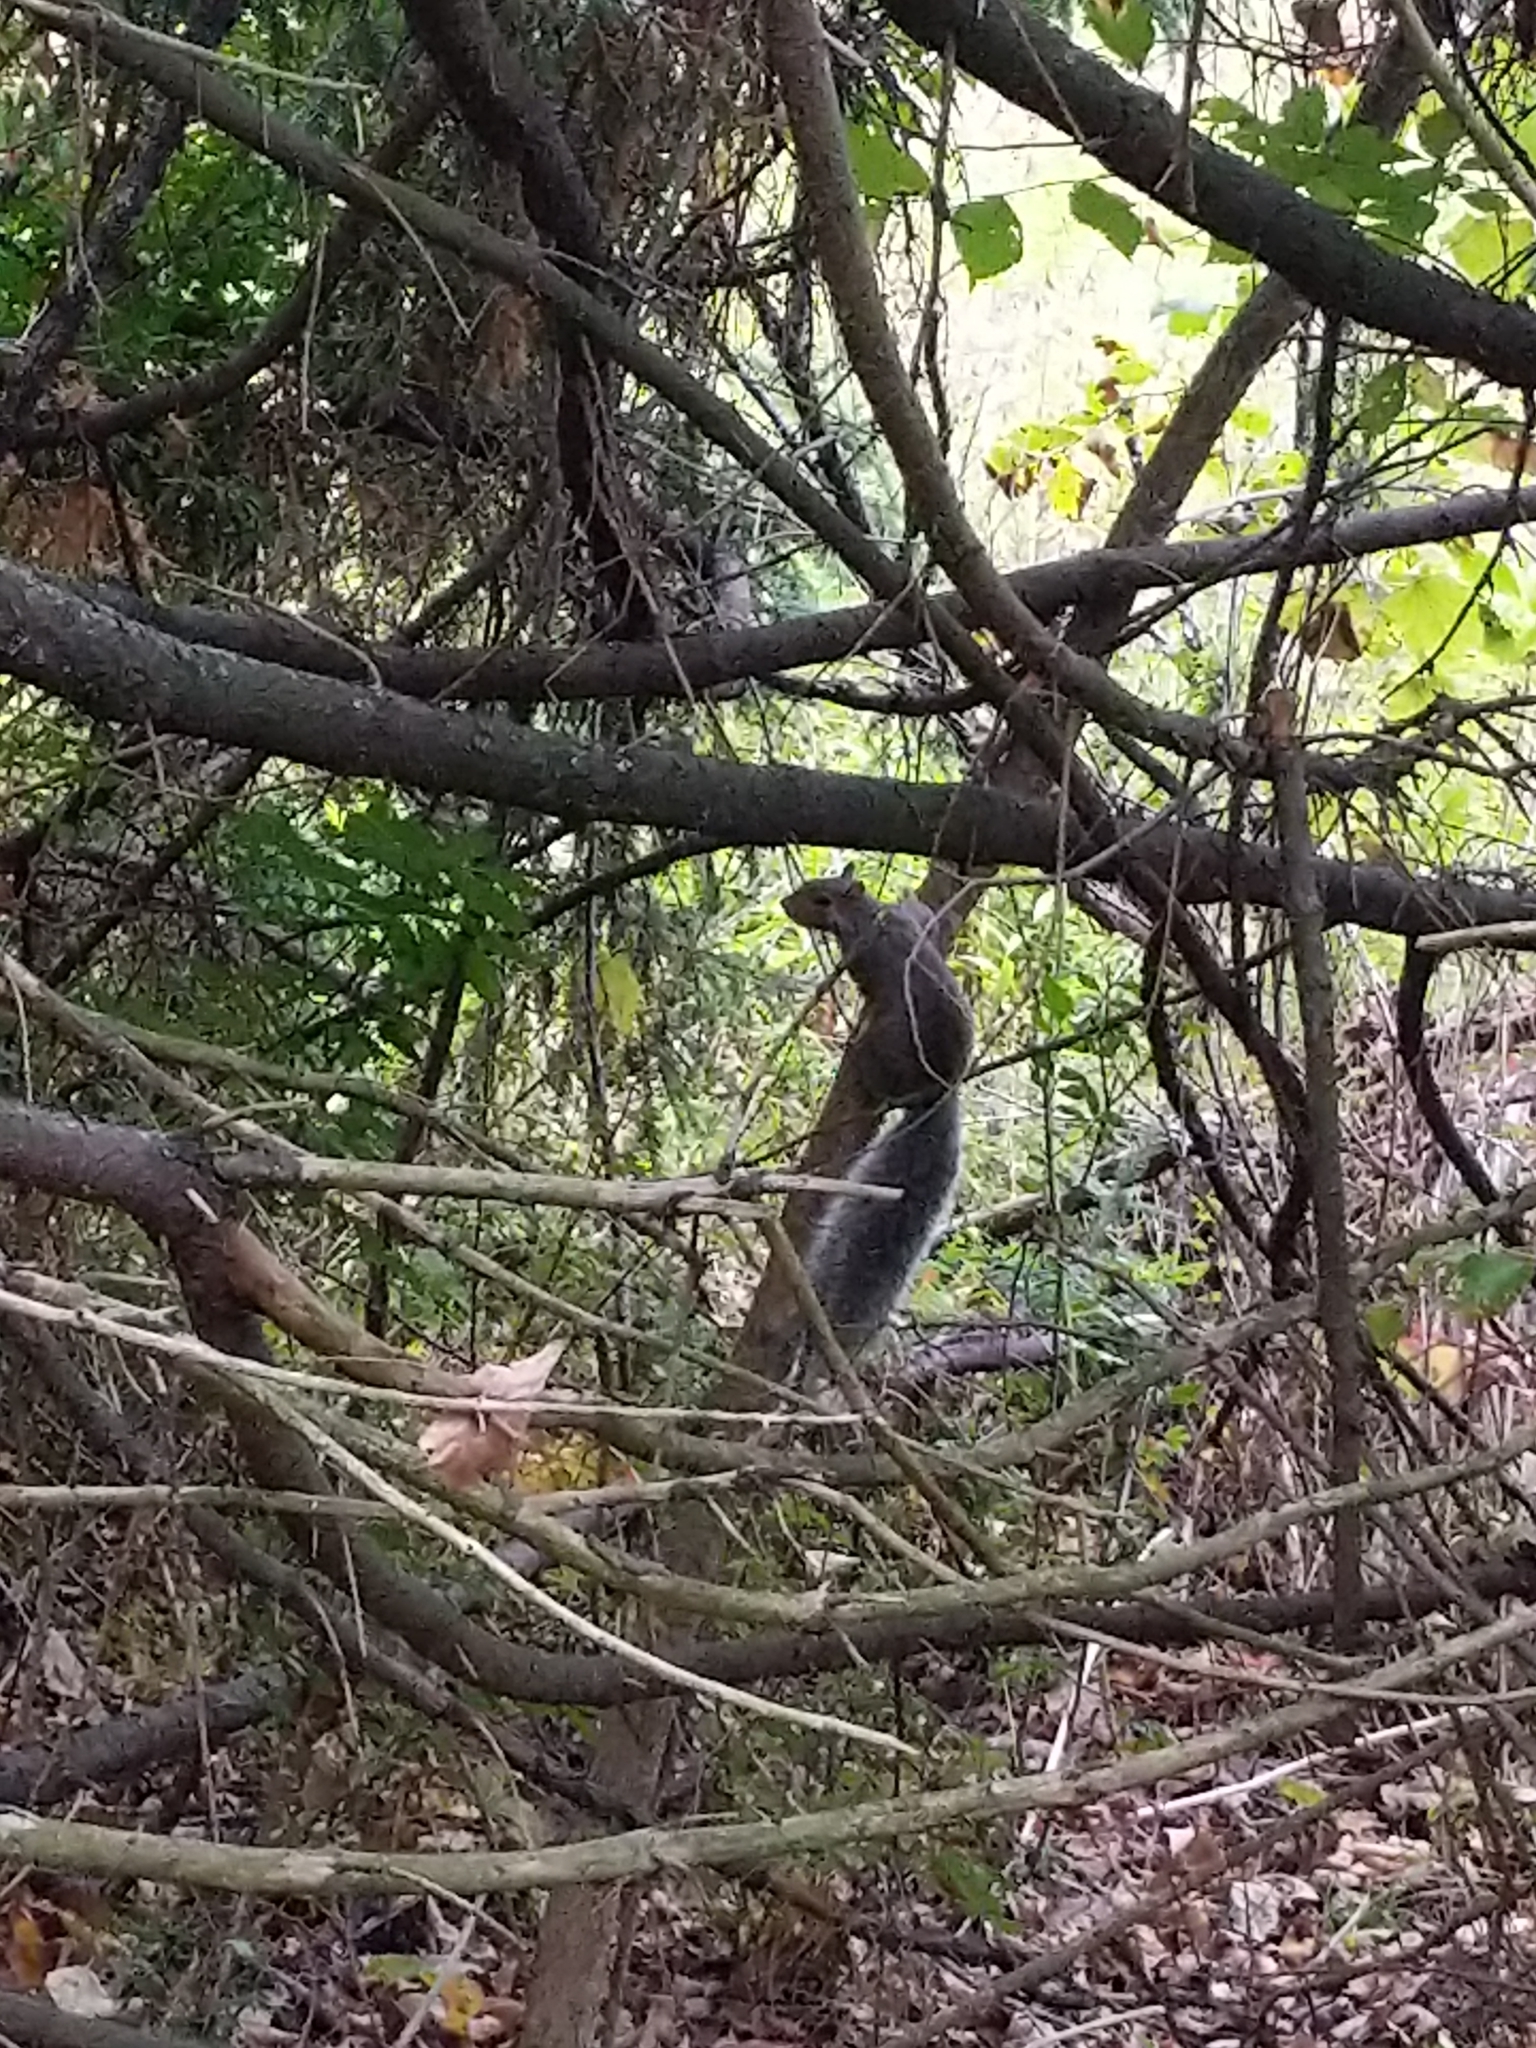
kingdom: Animalia
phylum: Chordata
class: Mammalia
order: Rodentia
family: Sciuridae
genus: Sciurus
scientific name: Sciurus carolinensis
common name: Eastern gray squirrel
